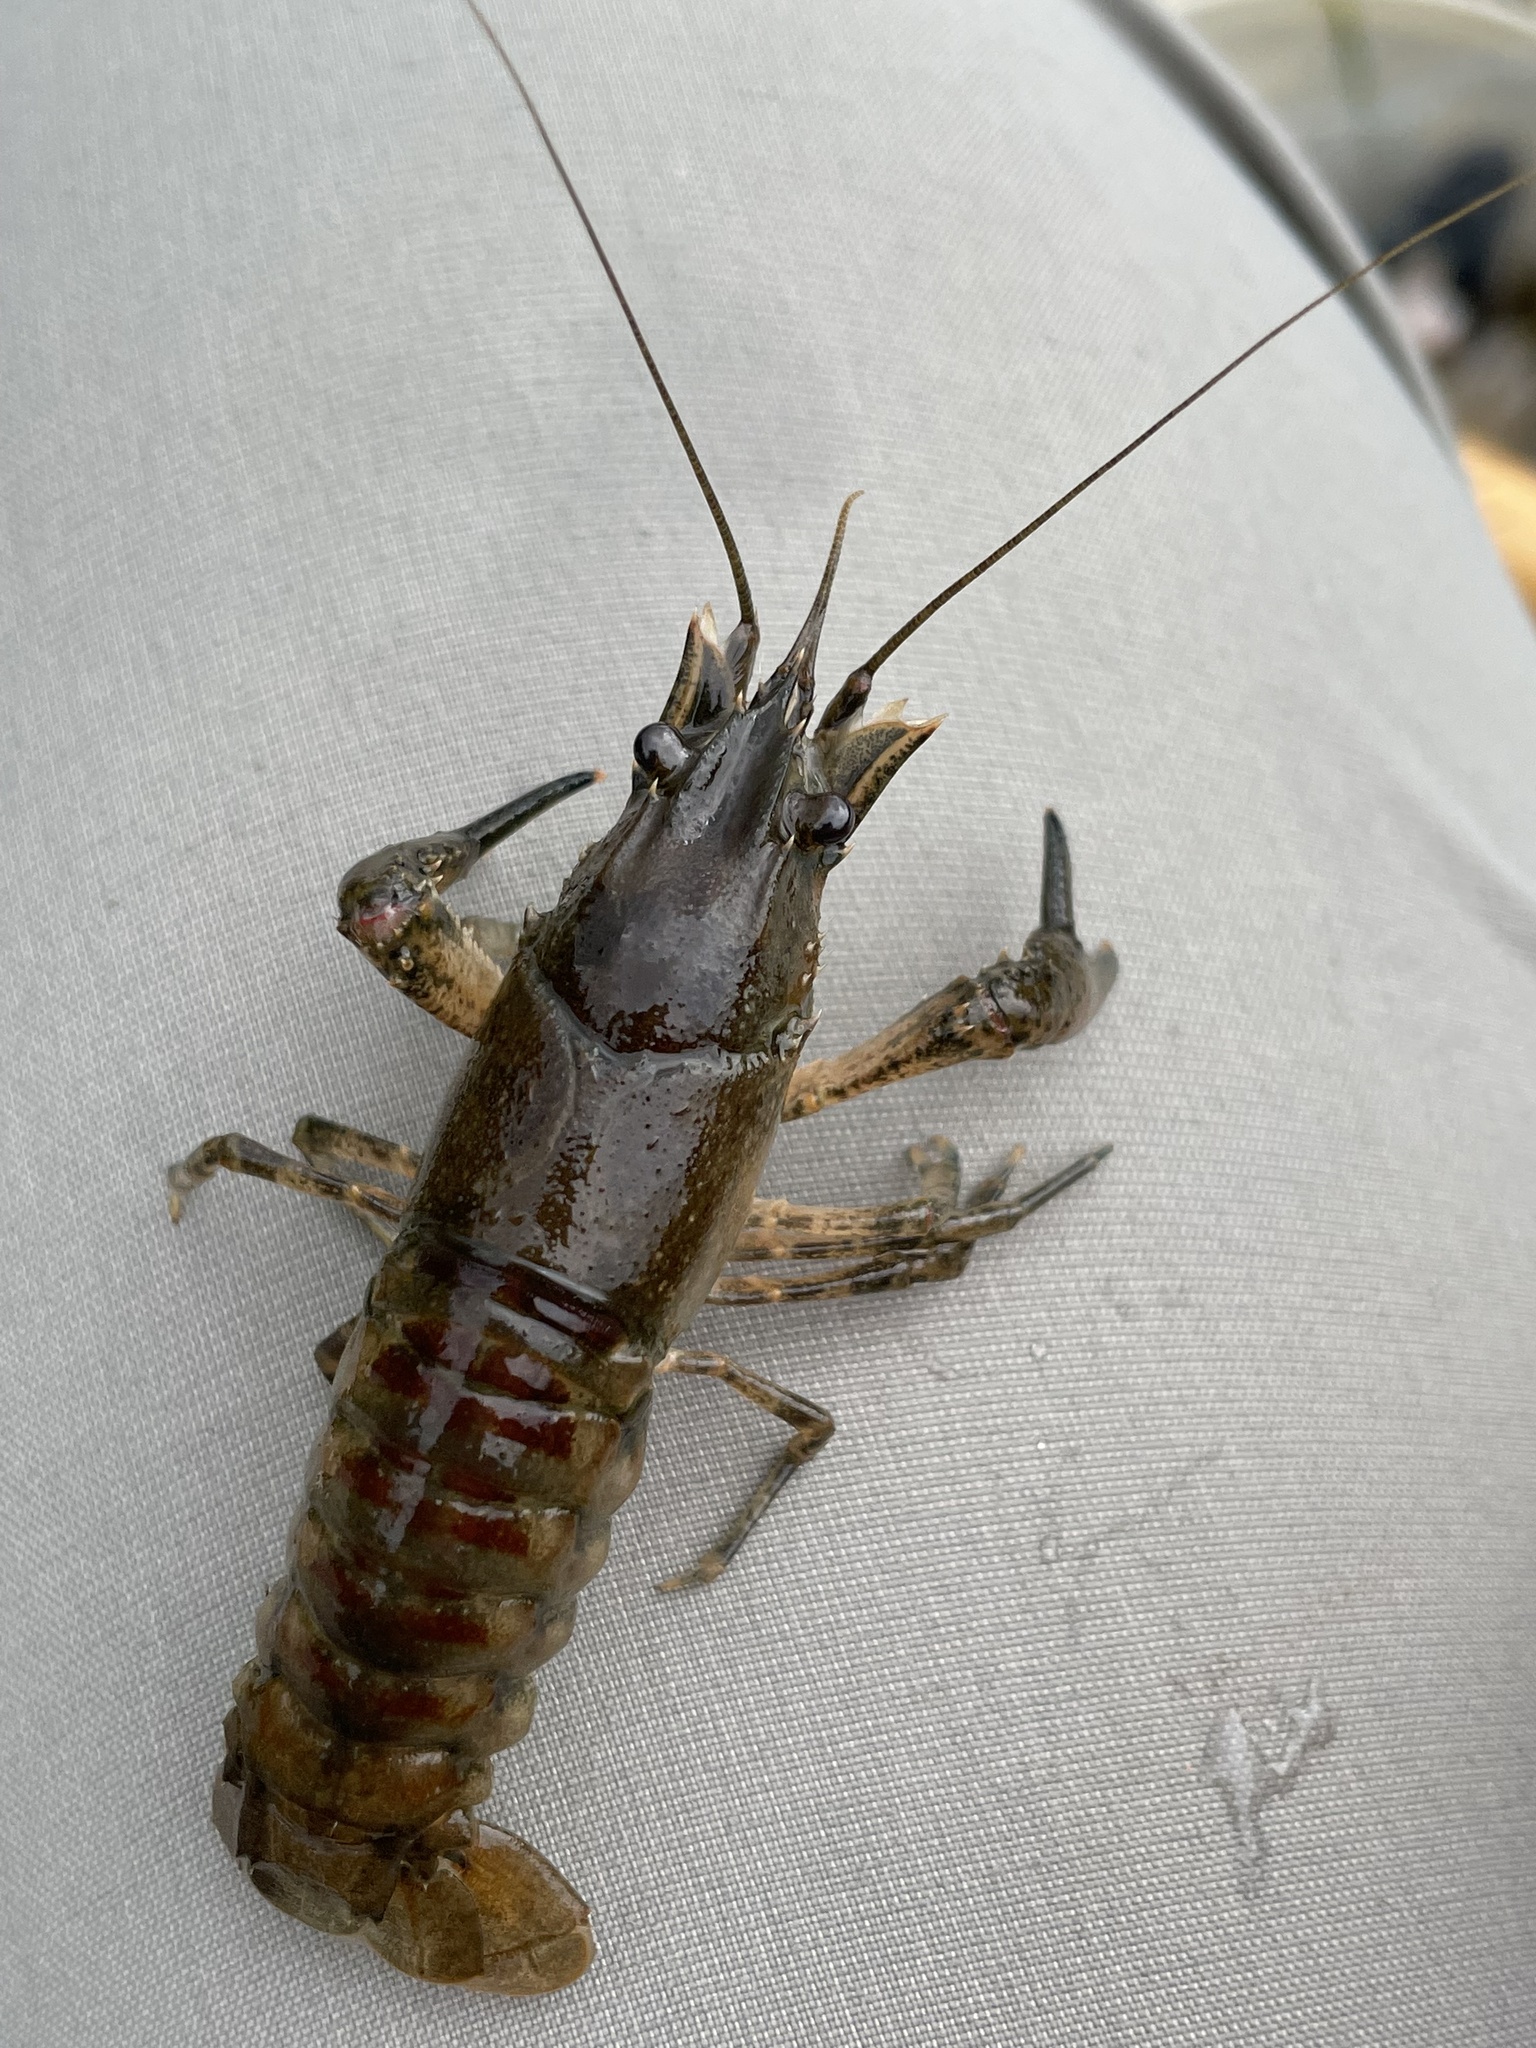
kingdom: Animalia
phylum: Arthropoda
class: Malacostraca
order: Decapoda
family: Cambaridae
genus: Faxonius
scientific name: Faxonius limosus
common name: American crayfish
